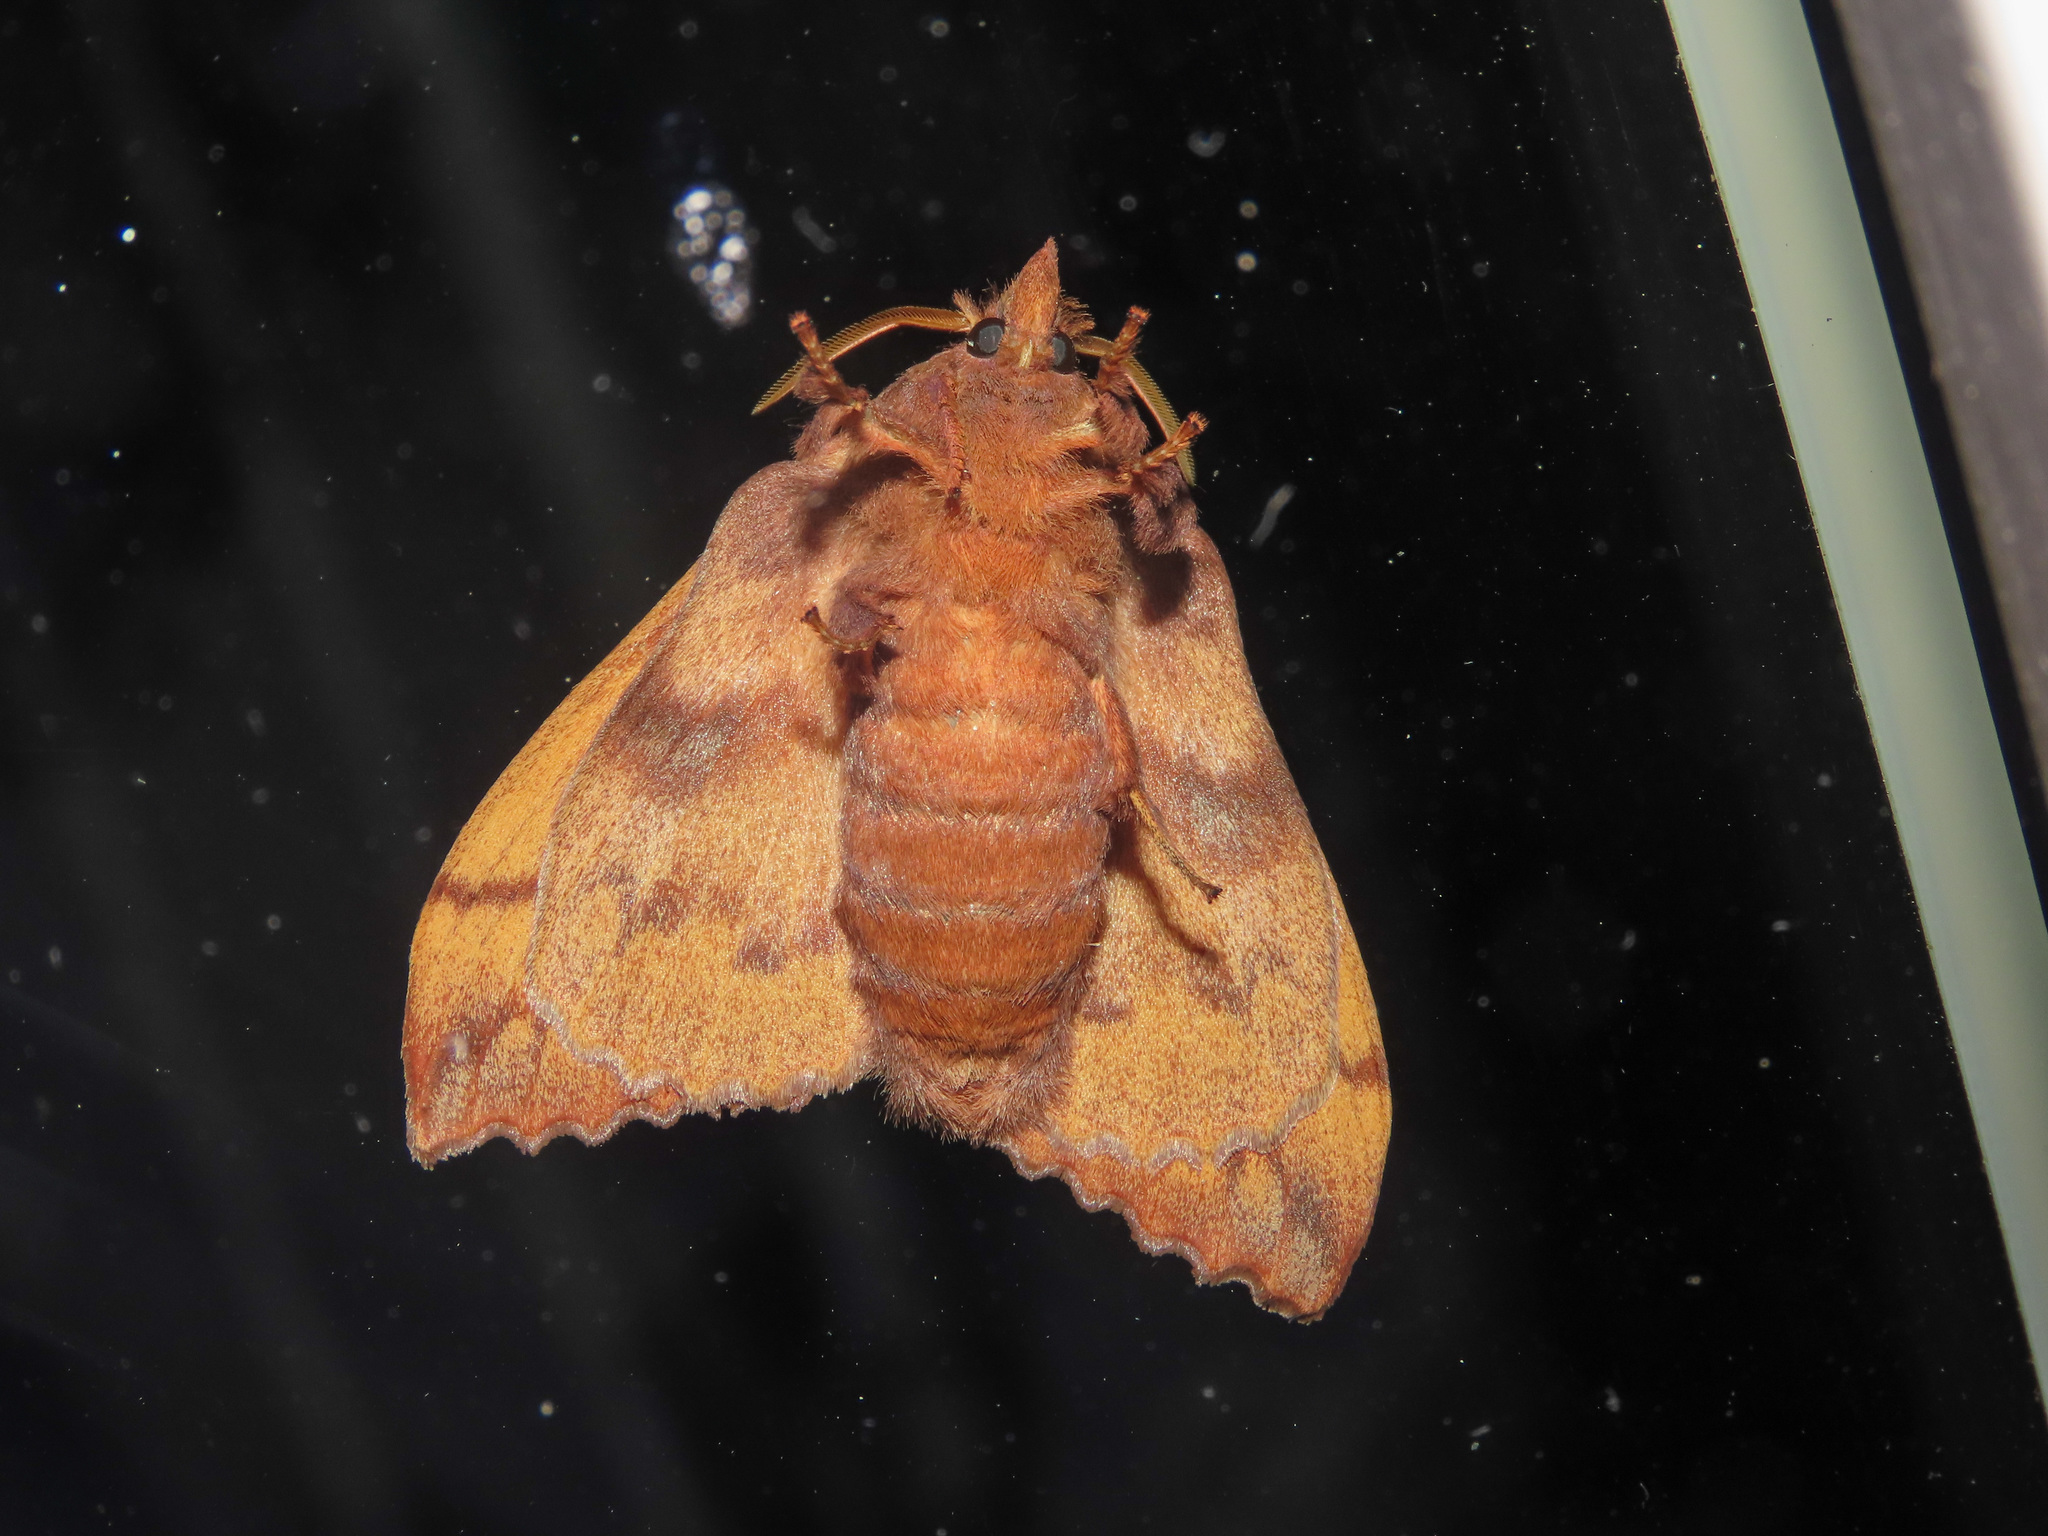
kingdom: Animalia
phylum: Arthropoda
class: Insecta
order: Lepidoptera
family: Lasiocampidae
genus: Odonestis
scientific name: Odonestis pruni
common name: Plum lappet
